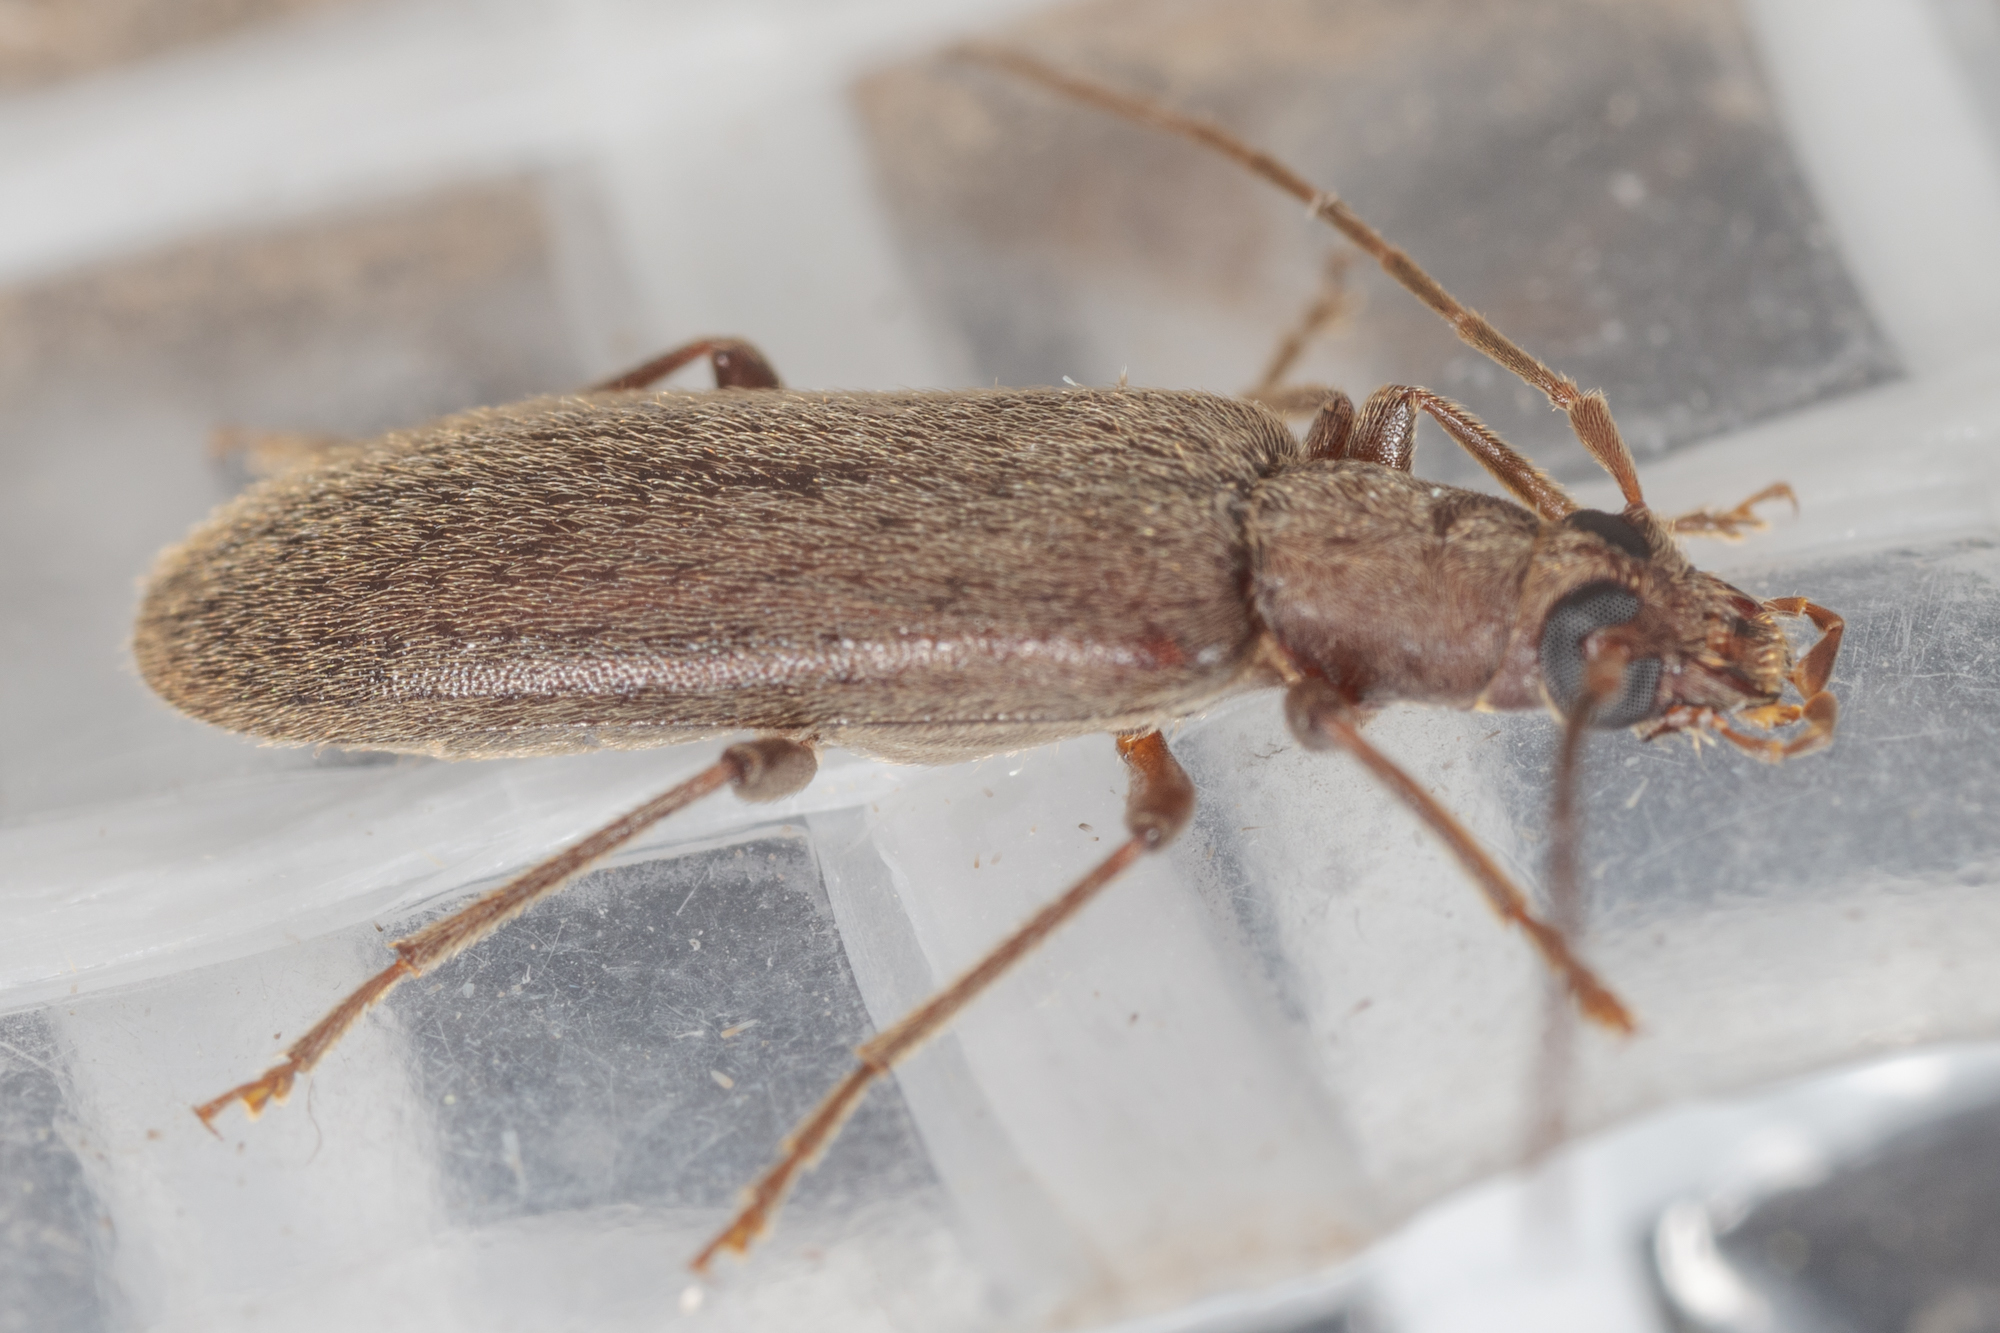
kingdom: Animalia
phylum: Arthropoda
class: Insecta
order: Coleoptera
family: Oedemeridae
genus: Sparedrus
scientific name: Sparedrus aspersus
